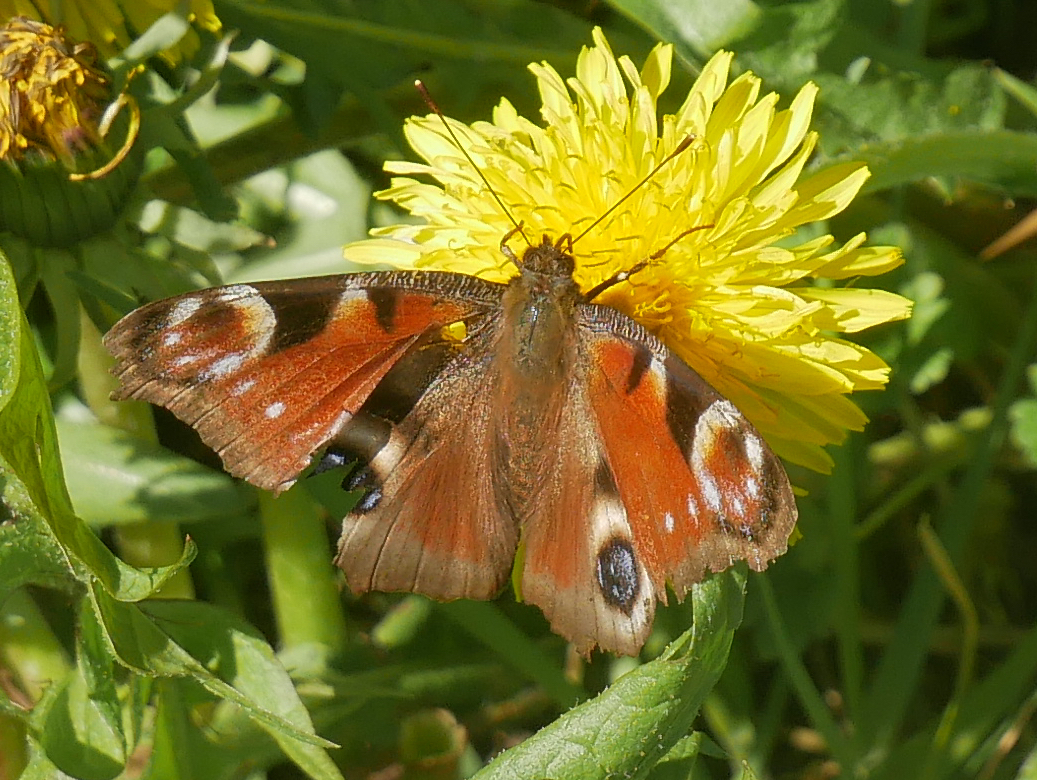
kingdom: Animalia
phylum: Arthropoda
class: Insecta
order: Lepidoptera
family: Nymphalidae
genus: Aglais
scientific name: Aglais io
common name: Peacock
